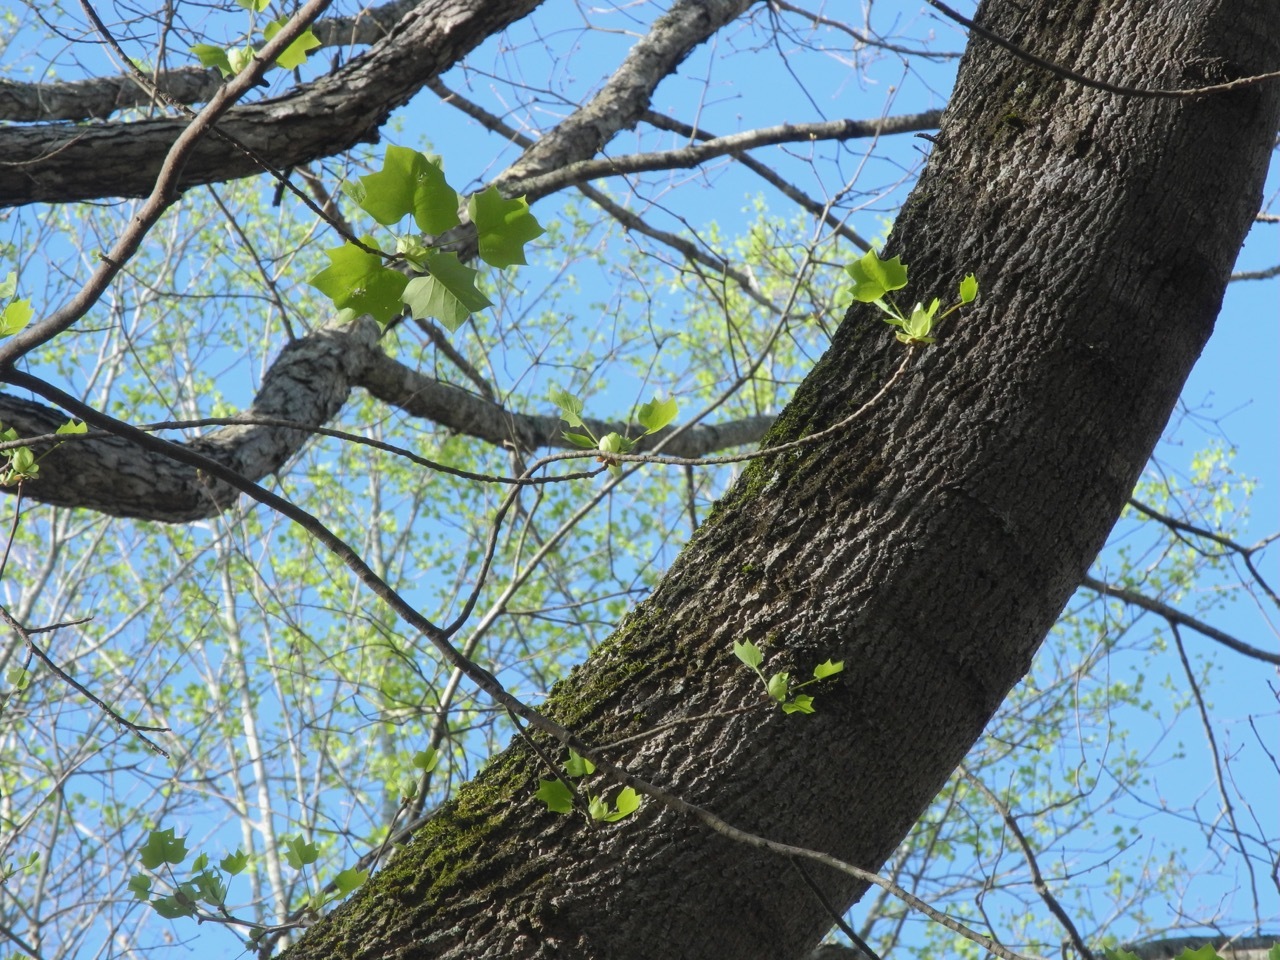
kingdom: Plantae
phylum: Tracheophyta
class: Magnoliopsida
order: Magnoliales
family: Magnoliaceae
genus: Liriodendron
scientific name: Liriodendron tulipifera
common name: Tulip tree
